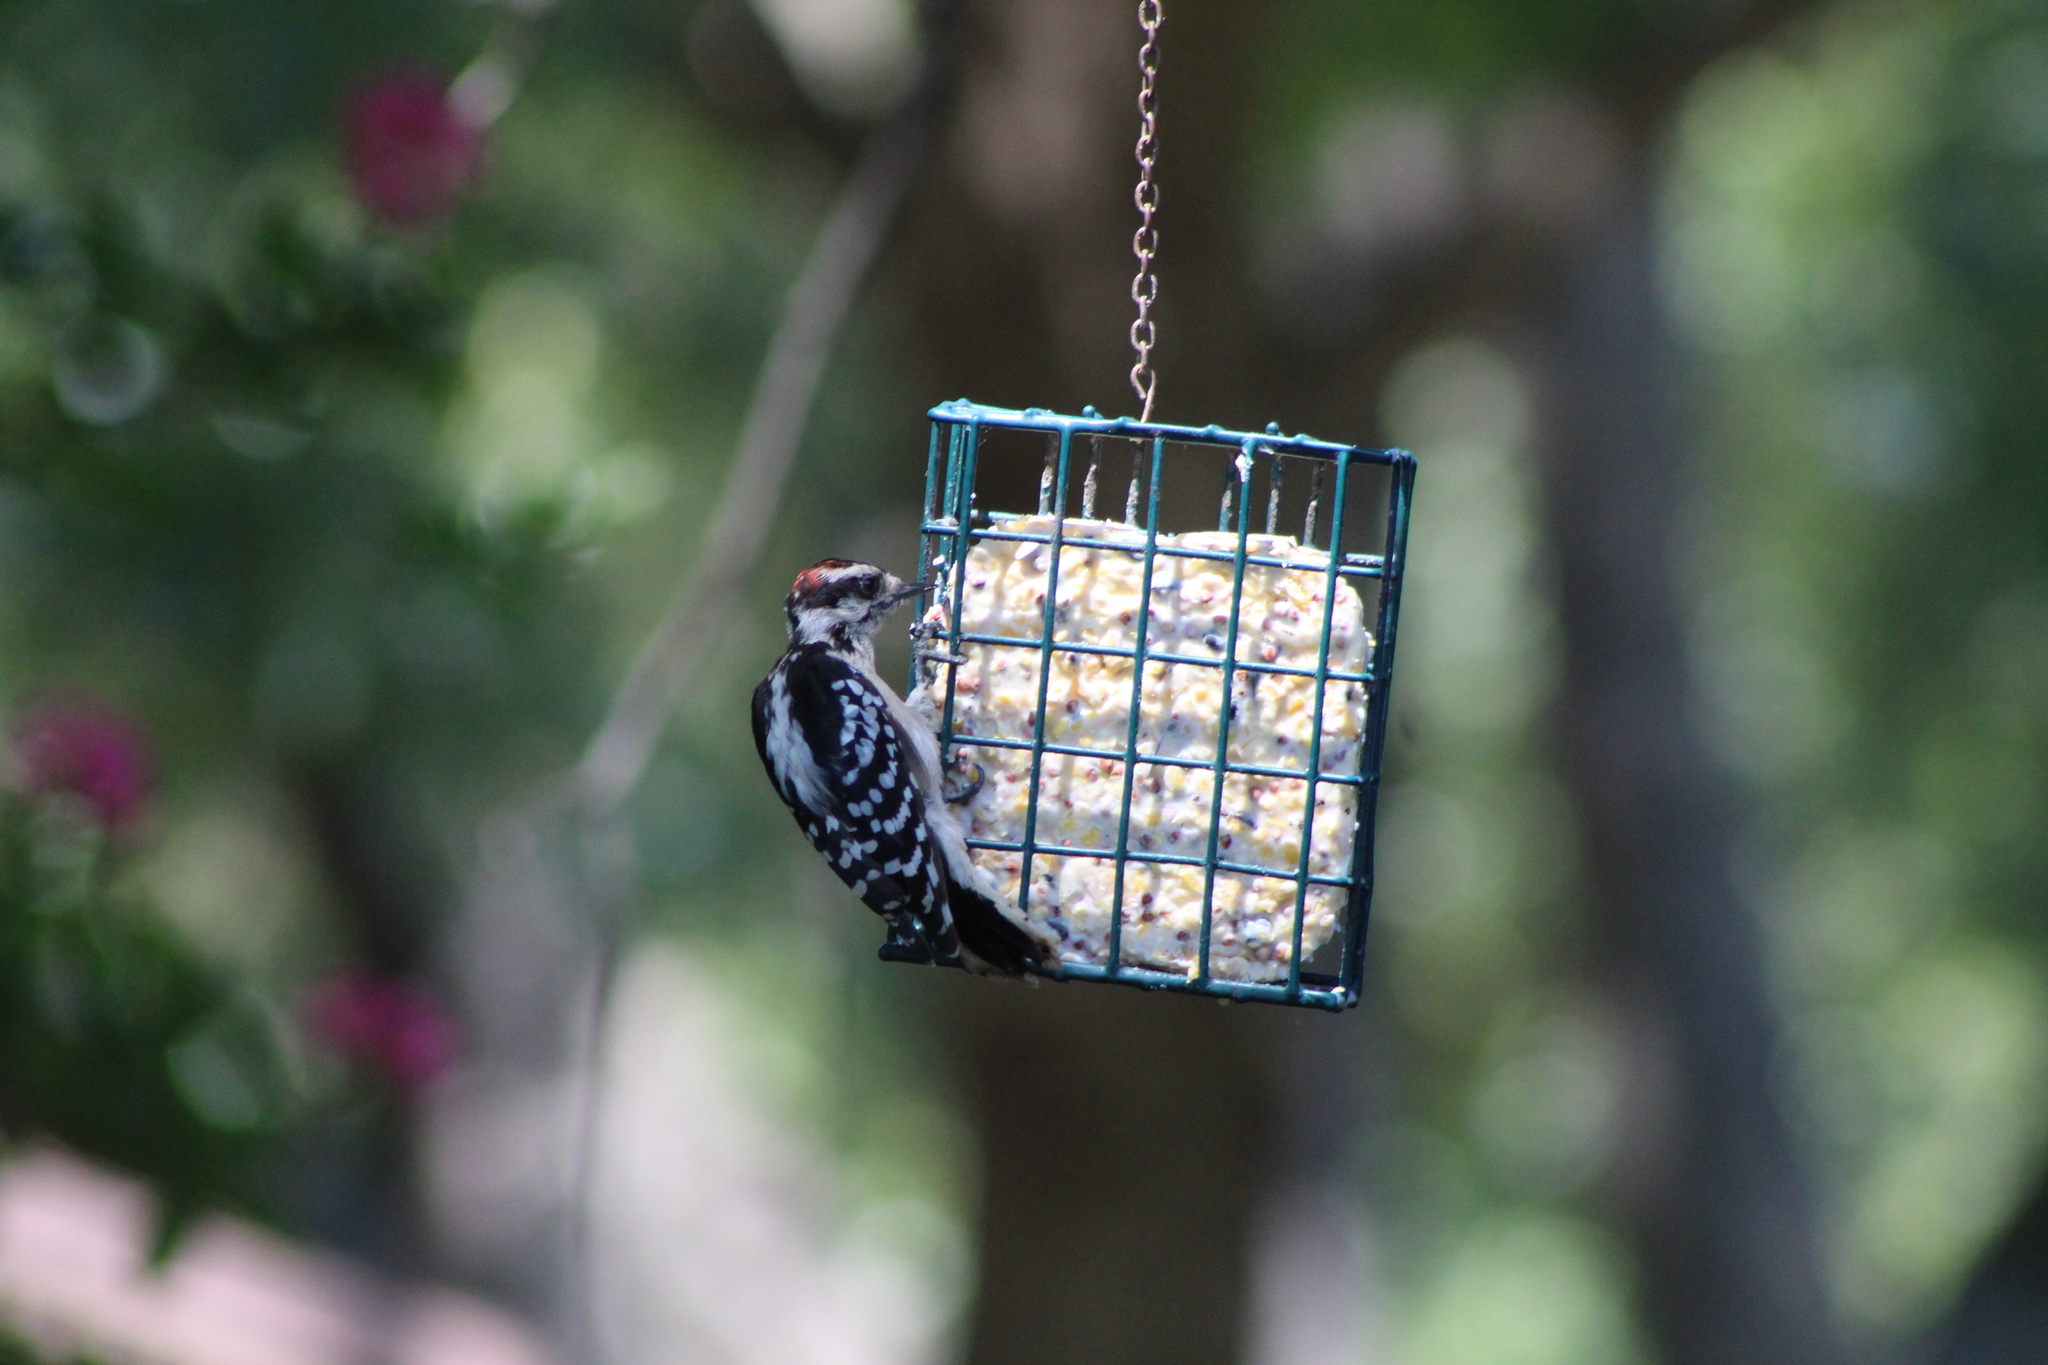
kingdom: Animalia
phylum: Chordata
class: Aves
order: Piciformes
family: Picidae
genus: Dryobates
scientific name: Dryobates pubescens
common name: Downy woodpecker
